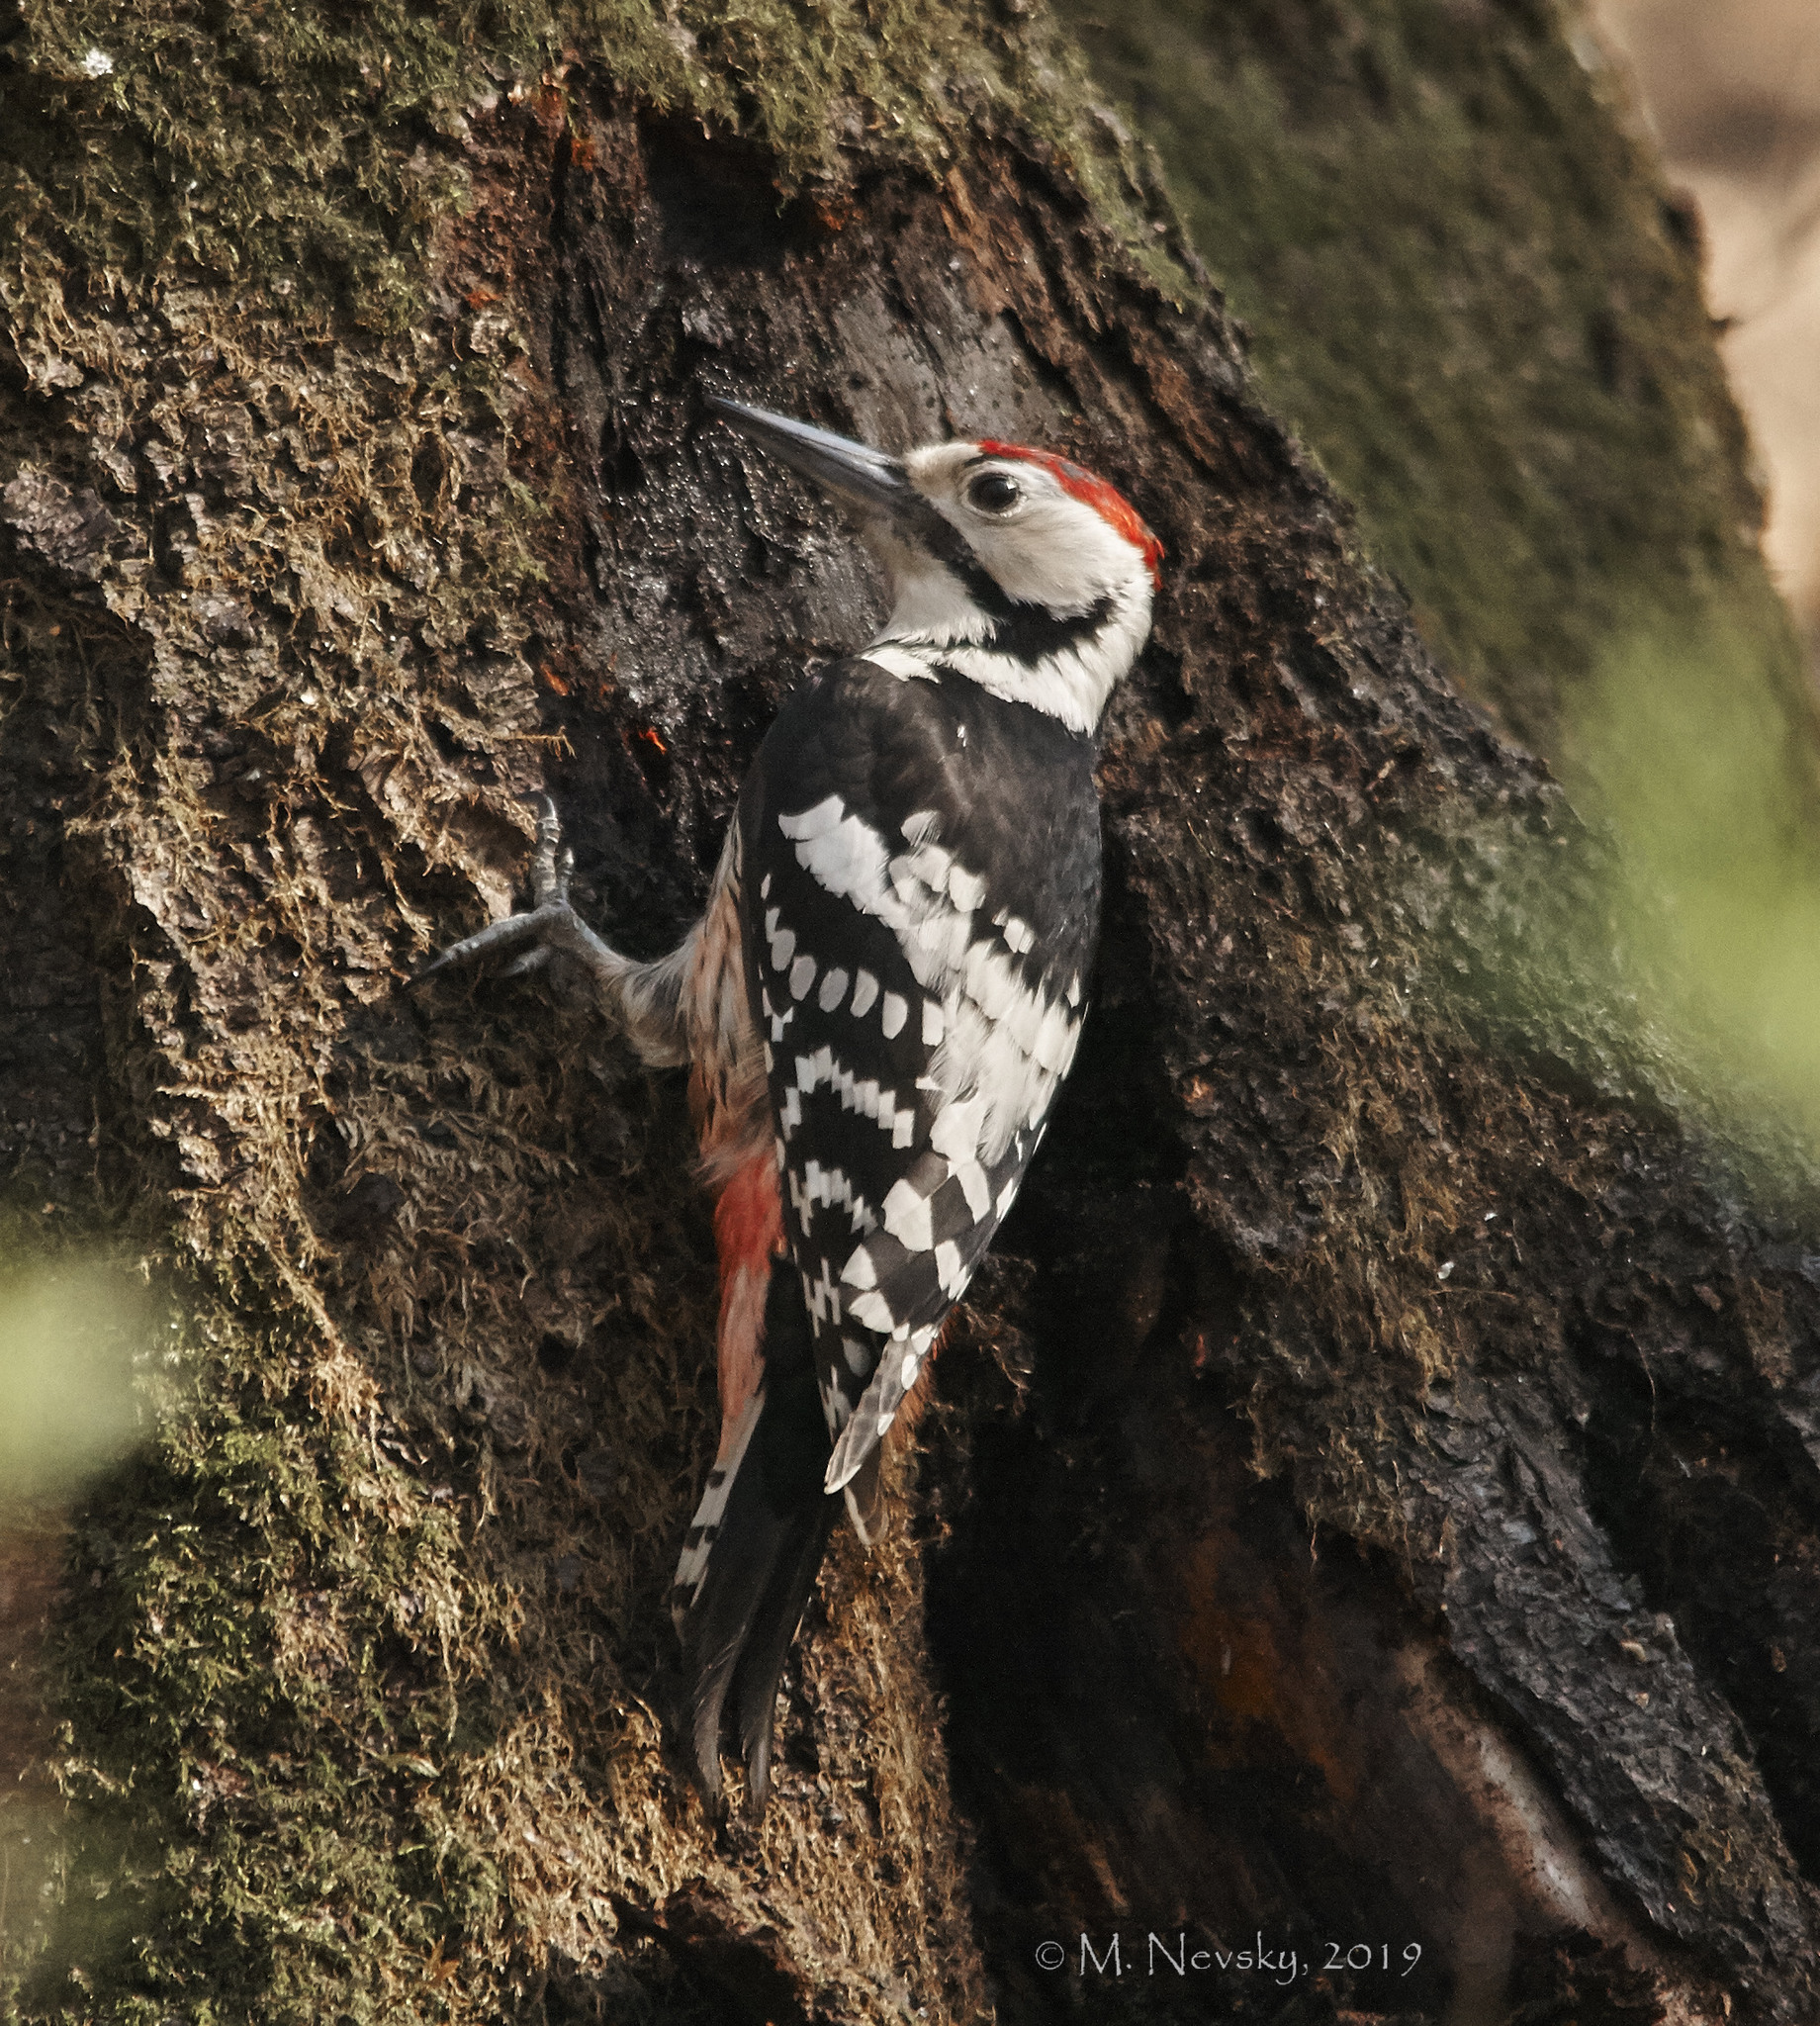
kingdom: Animalia
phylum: Chordata
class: Aves
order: Piciformes
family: Picidae
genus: Dendrocopos
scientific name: Dendrocopos leucotos
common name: White-backed woodpecker
